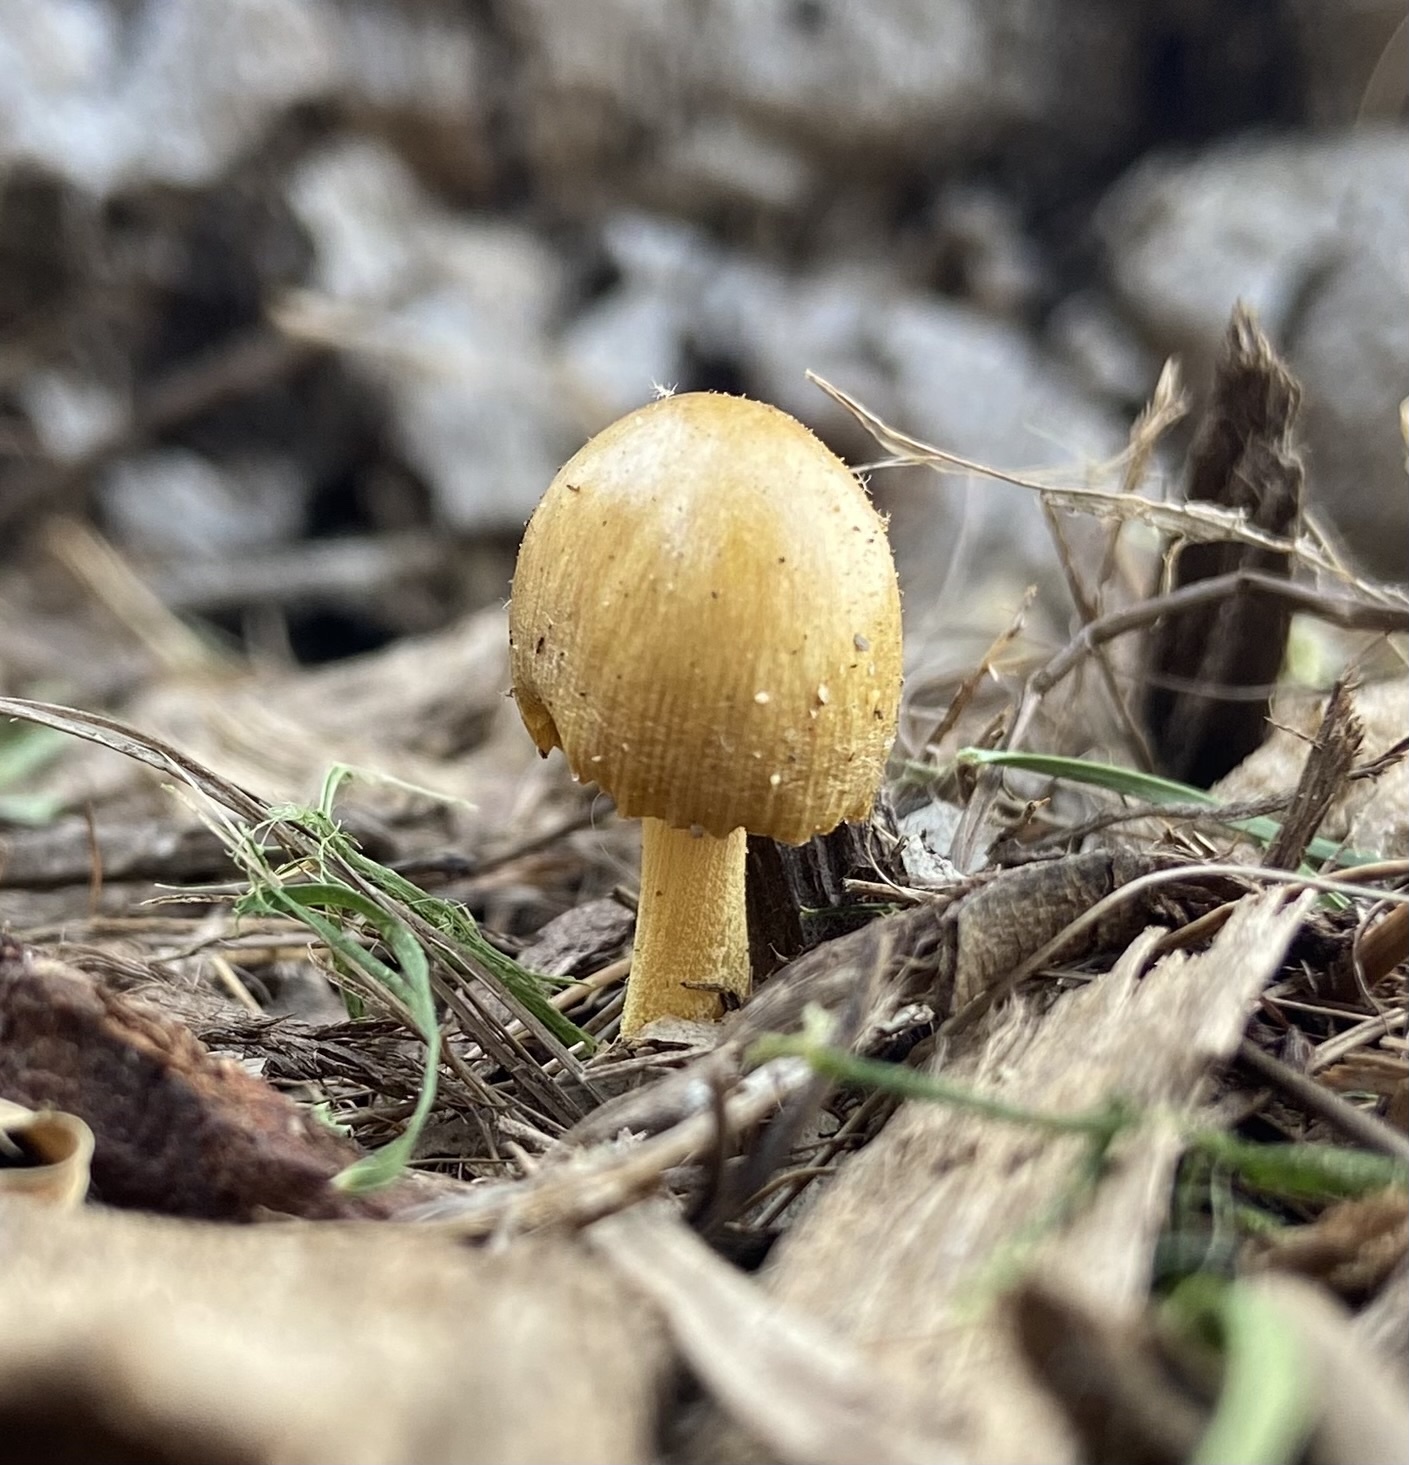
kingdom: Fungi
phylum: Basidiomycota
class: Agaricomycetes
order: Agaricales
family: Bolbitiaceae
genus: Bolbitius
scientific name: Bolbitius titubans
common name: Yellow fieldcap
